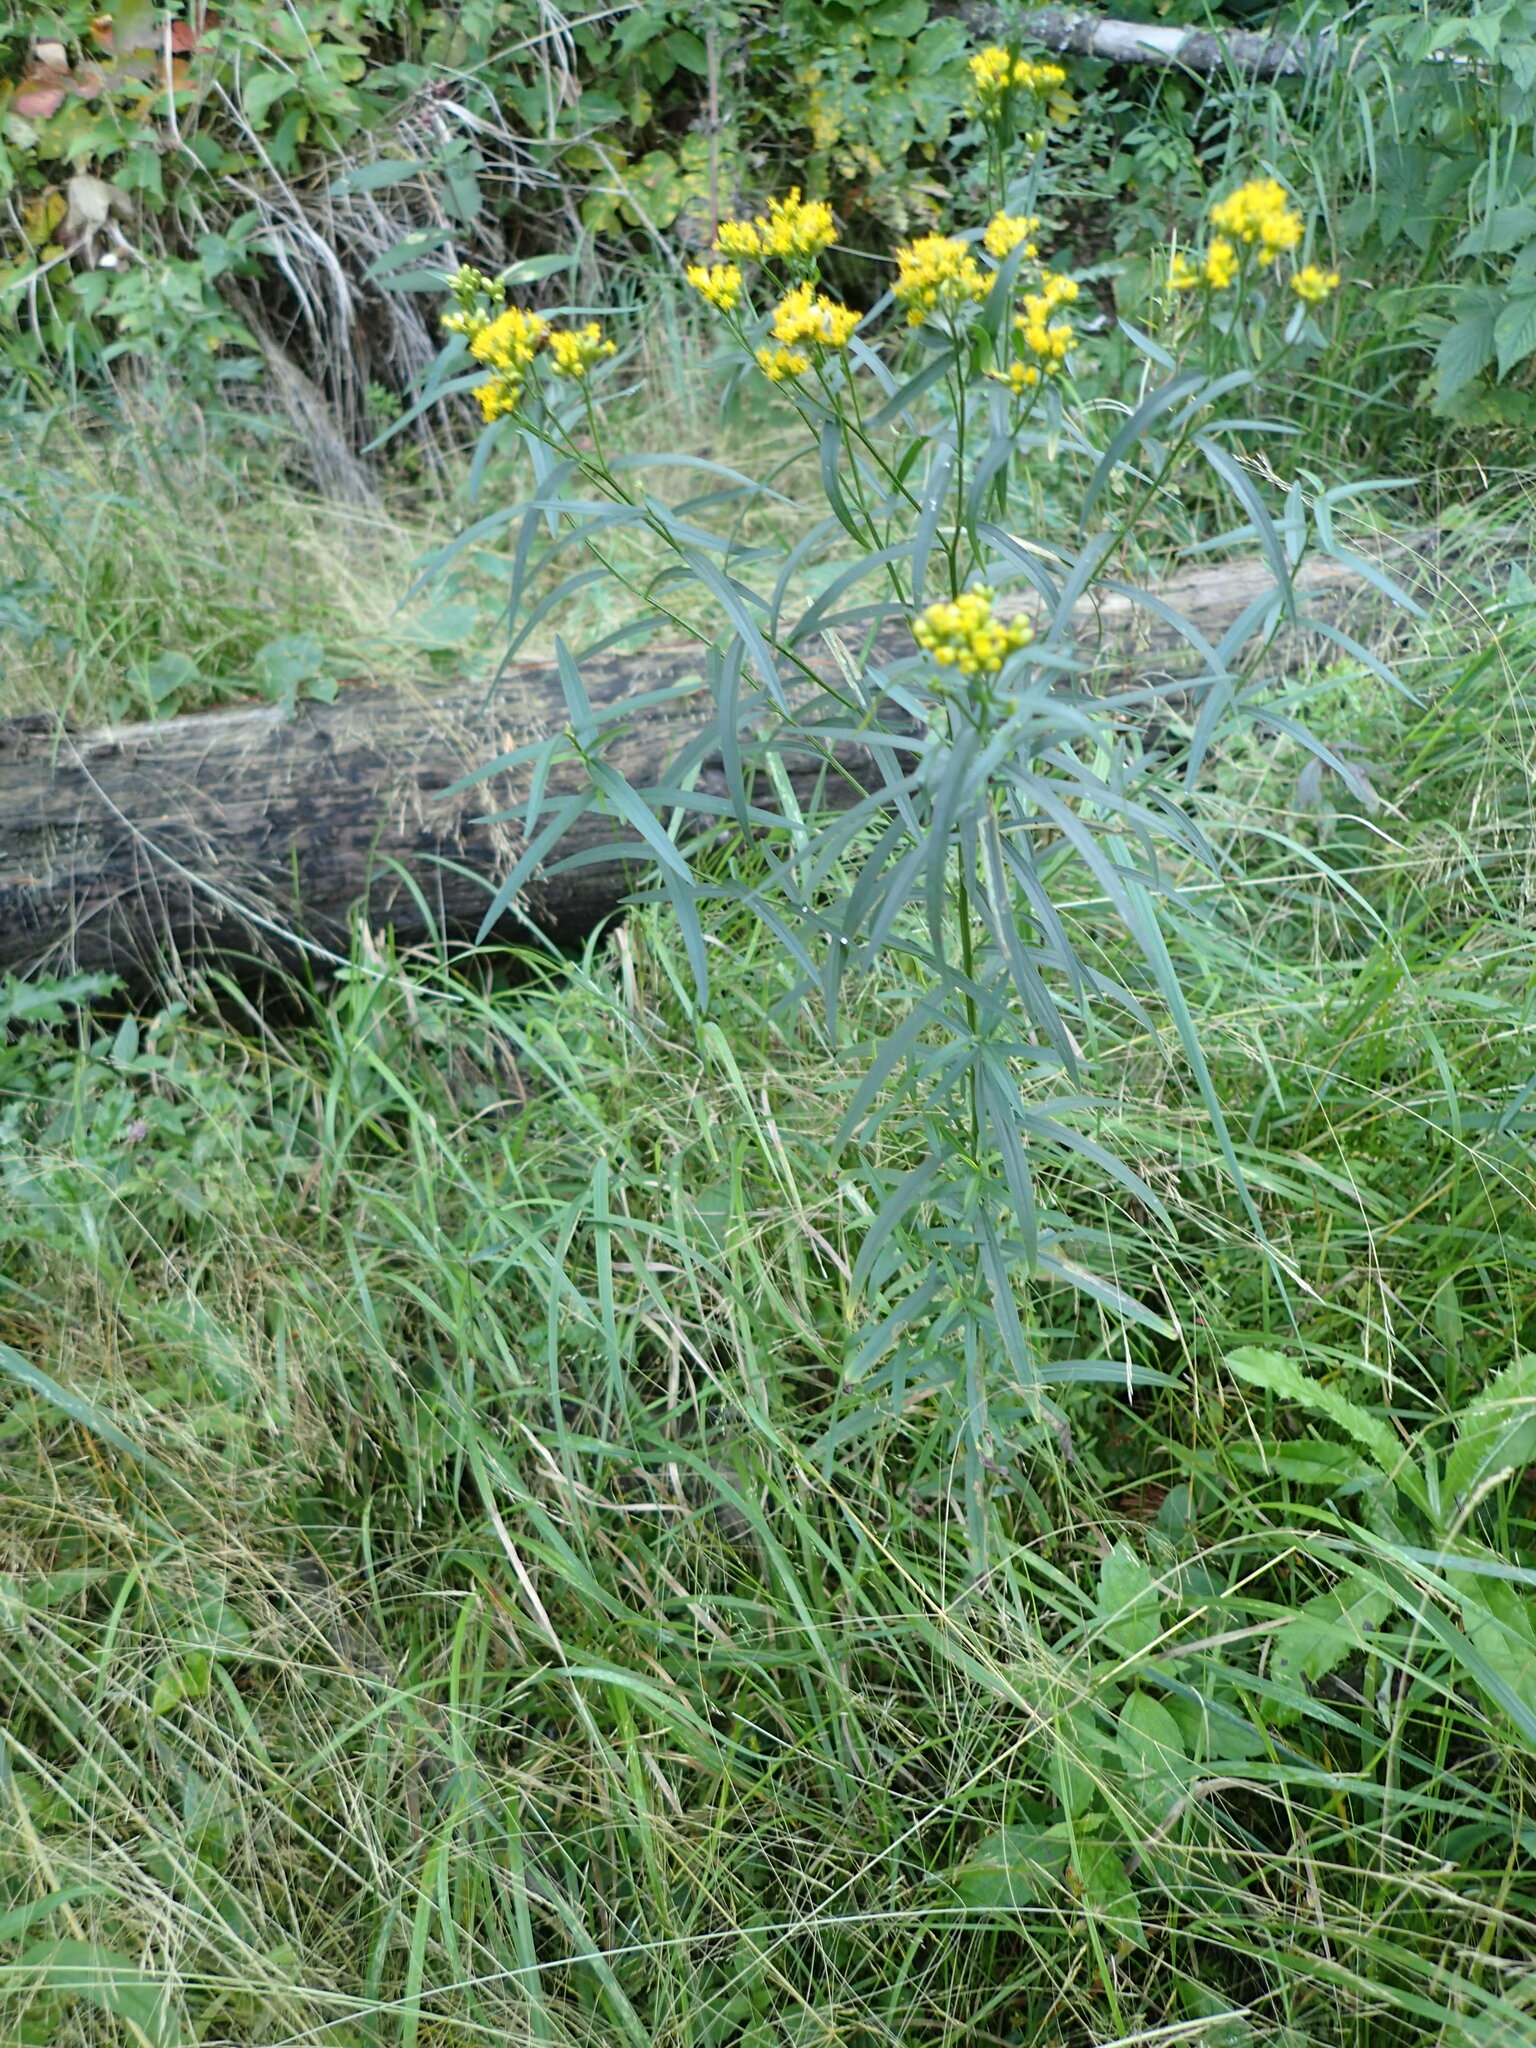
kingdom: Plantae
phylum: Tracheophyta
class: Magnoliopsida
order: Asterales
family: Asteraceae
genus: Euthamia
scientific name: Euthamia graminifolia
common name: Common goldentop
